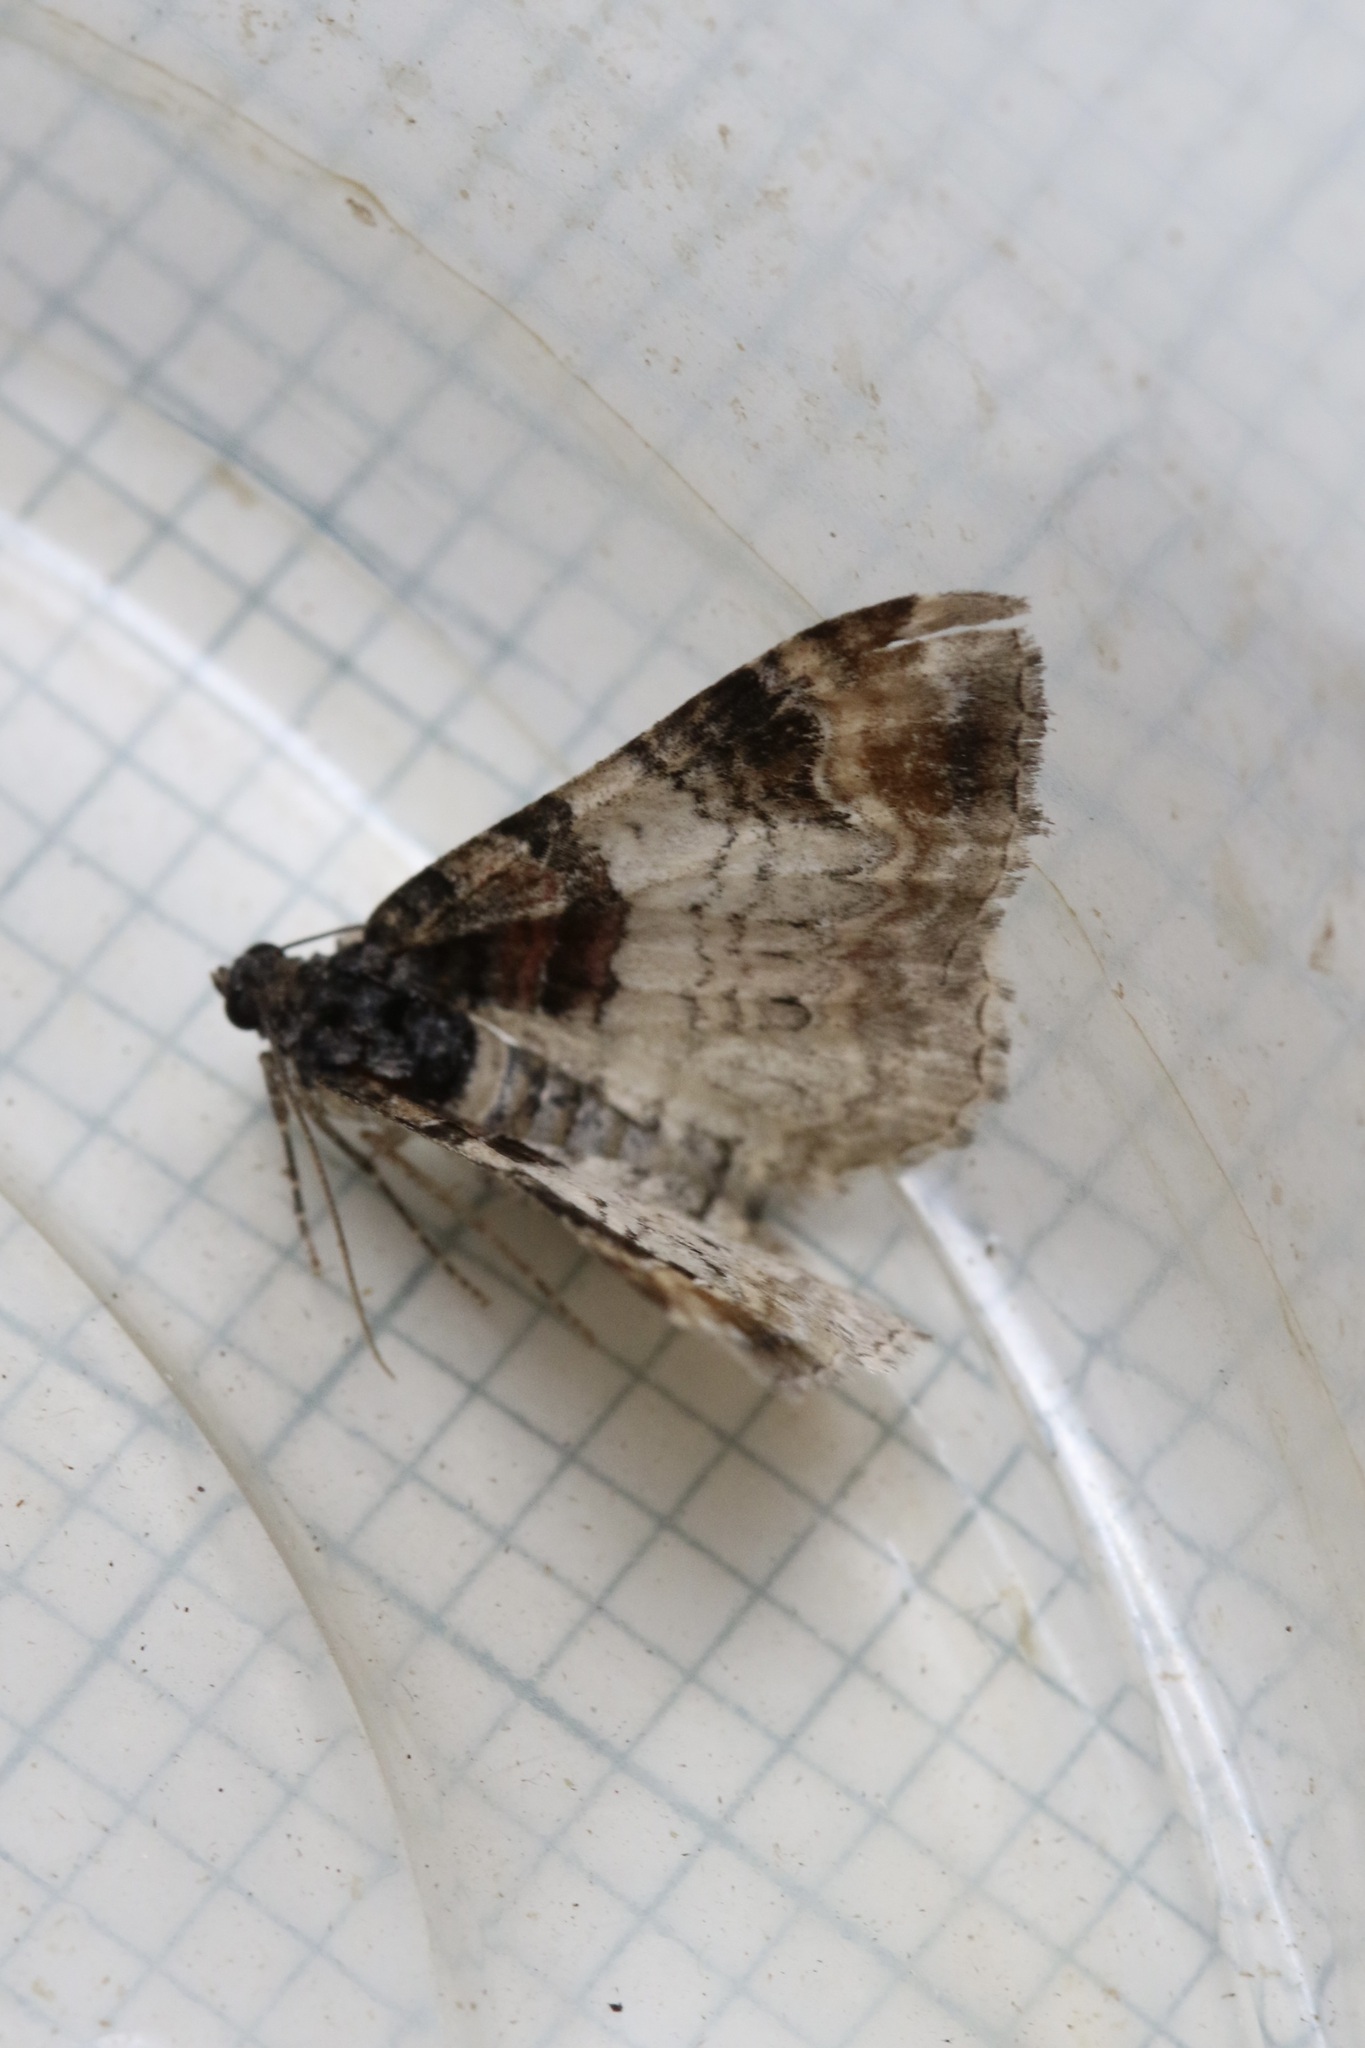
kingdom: Animalia
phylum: Arthropoda
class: Insecta
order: Lepidoptera
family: Geometridae
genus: Catarhoe
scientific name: Catarhoe cuculata
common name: Royal mantle
